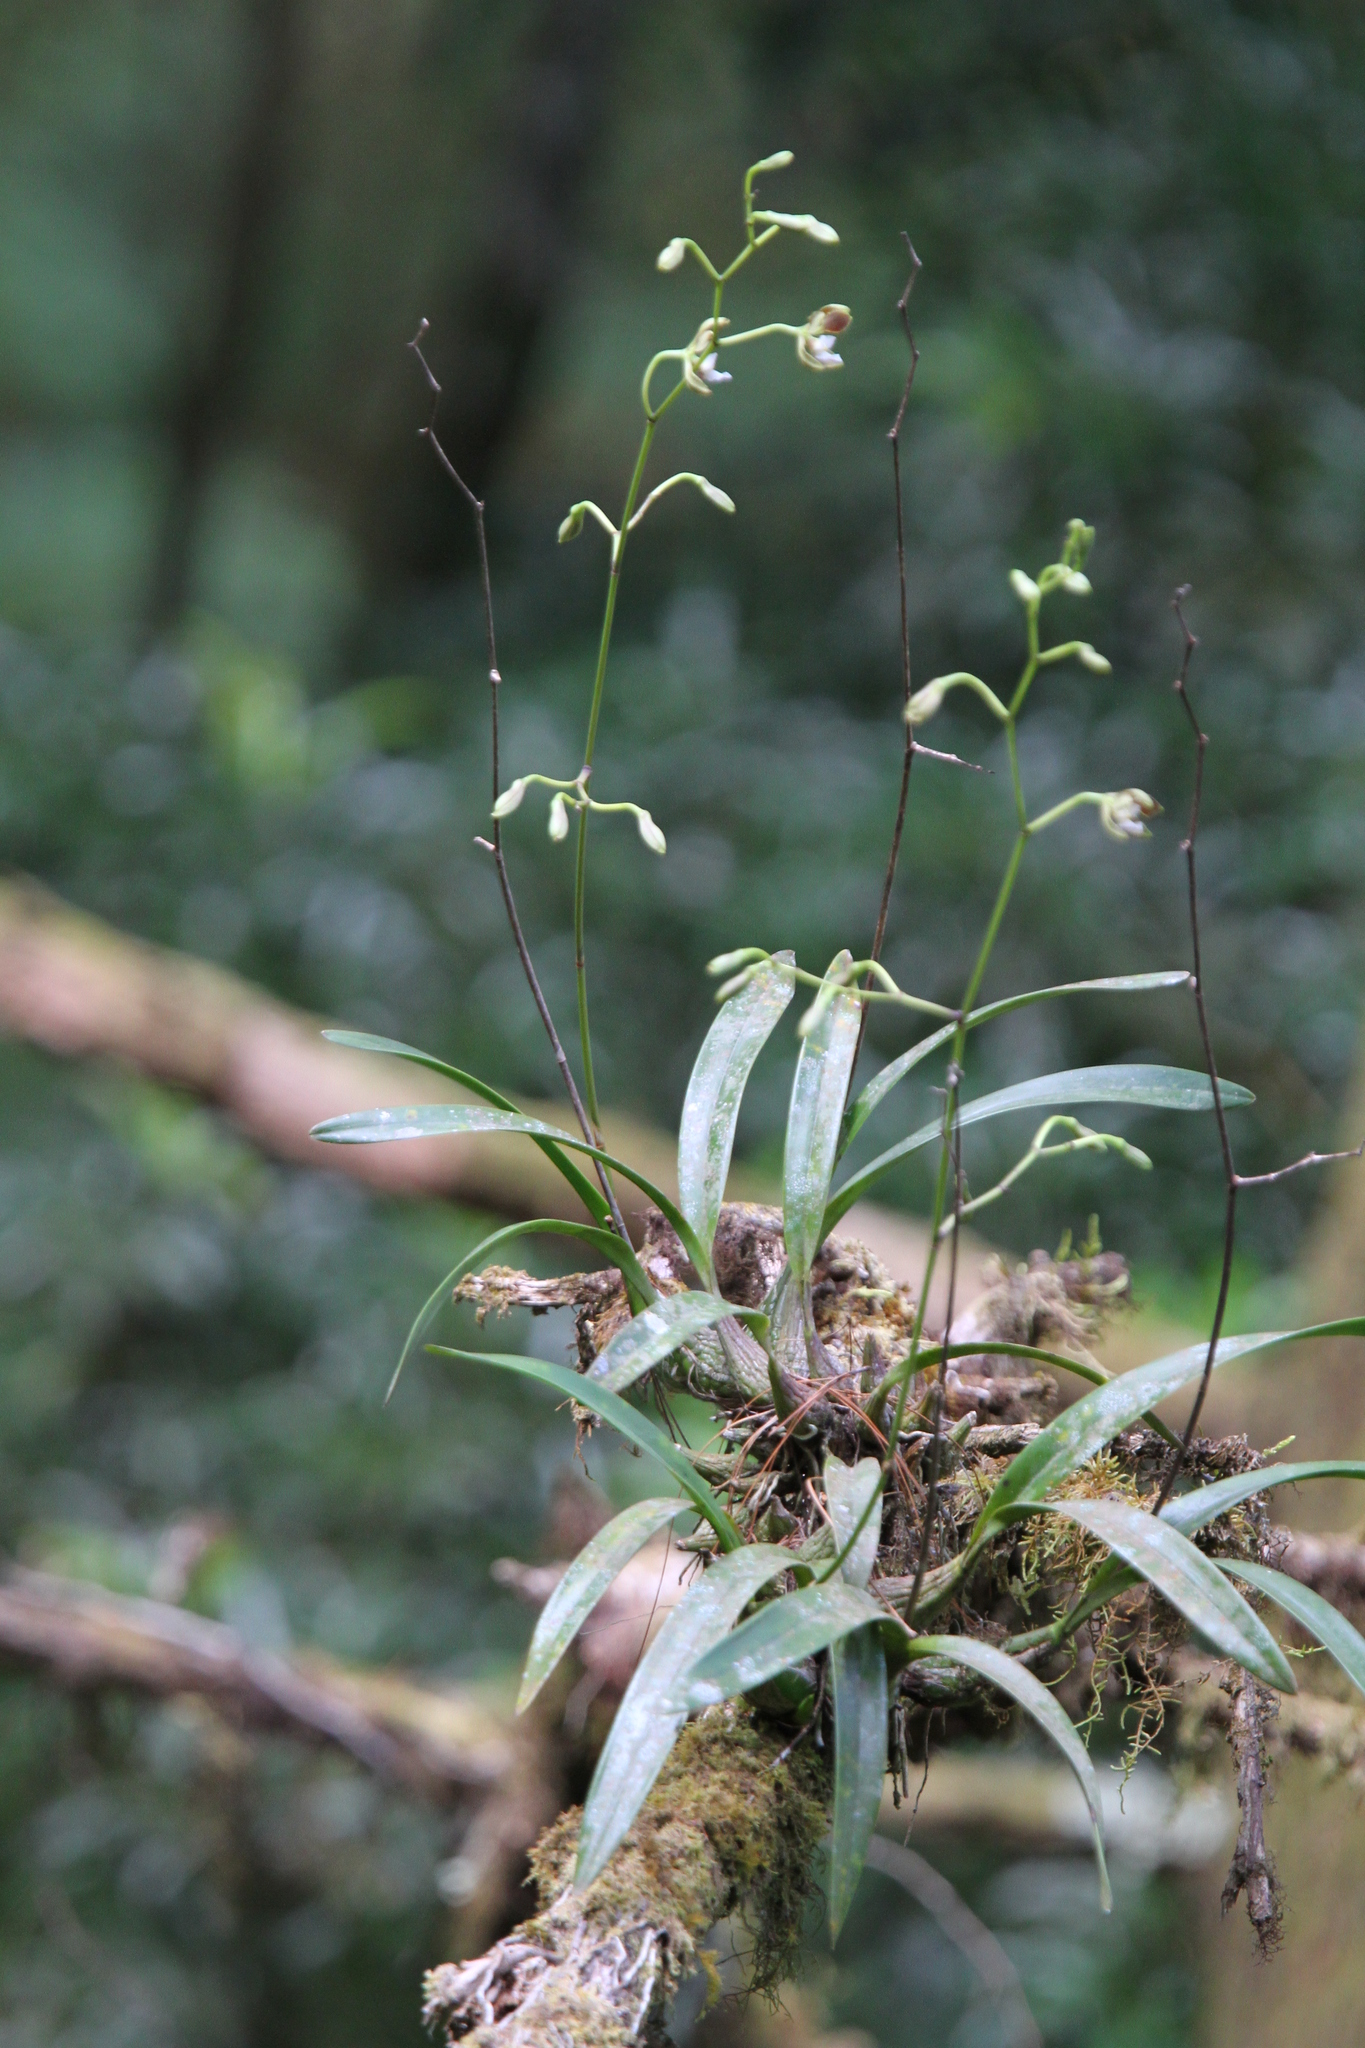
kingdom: Plantae
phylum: Tracheophyta
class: Liliopsida
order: Asparagales
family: Orchidaceae
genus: Encyclia
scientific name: Encyclia selligera
